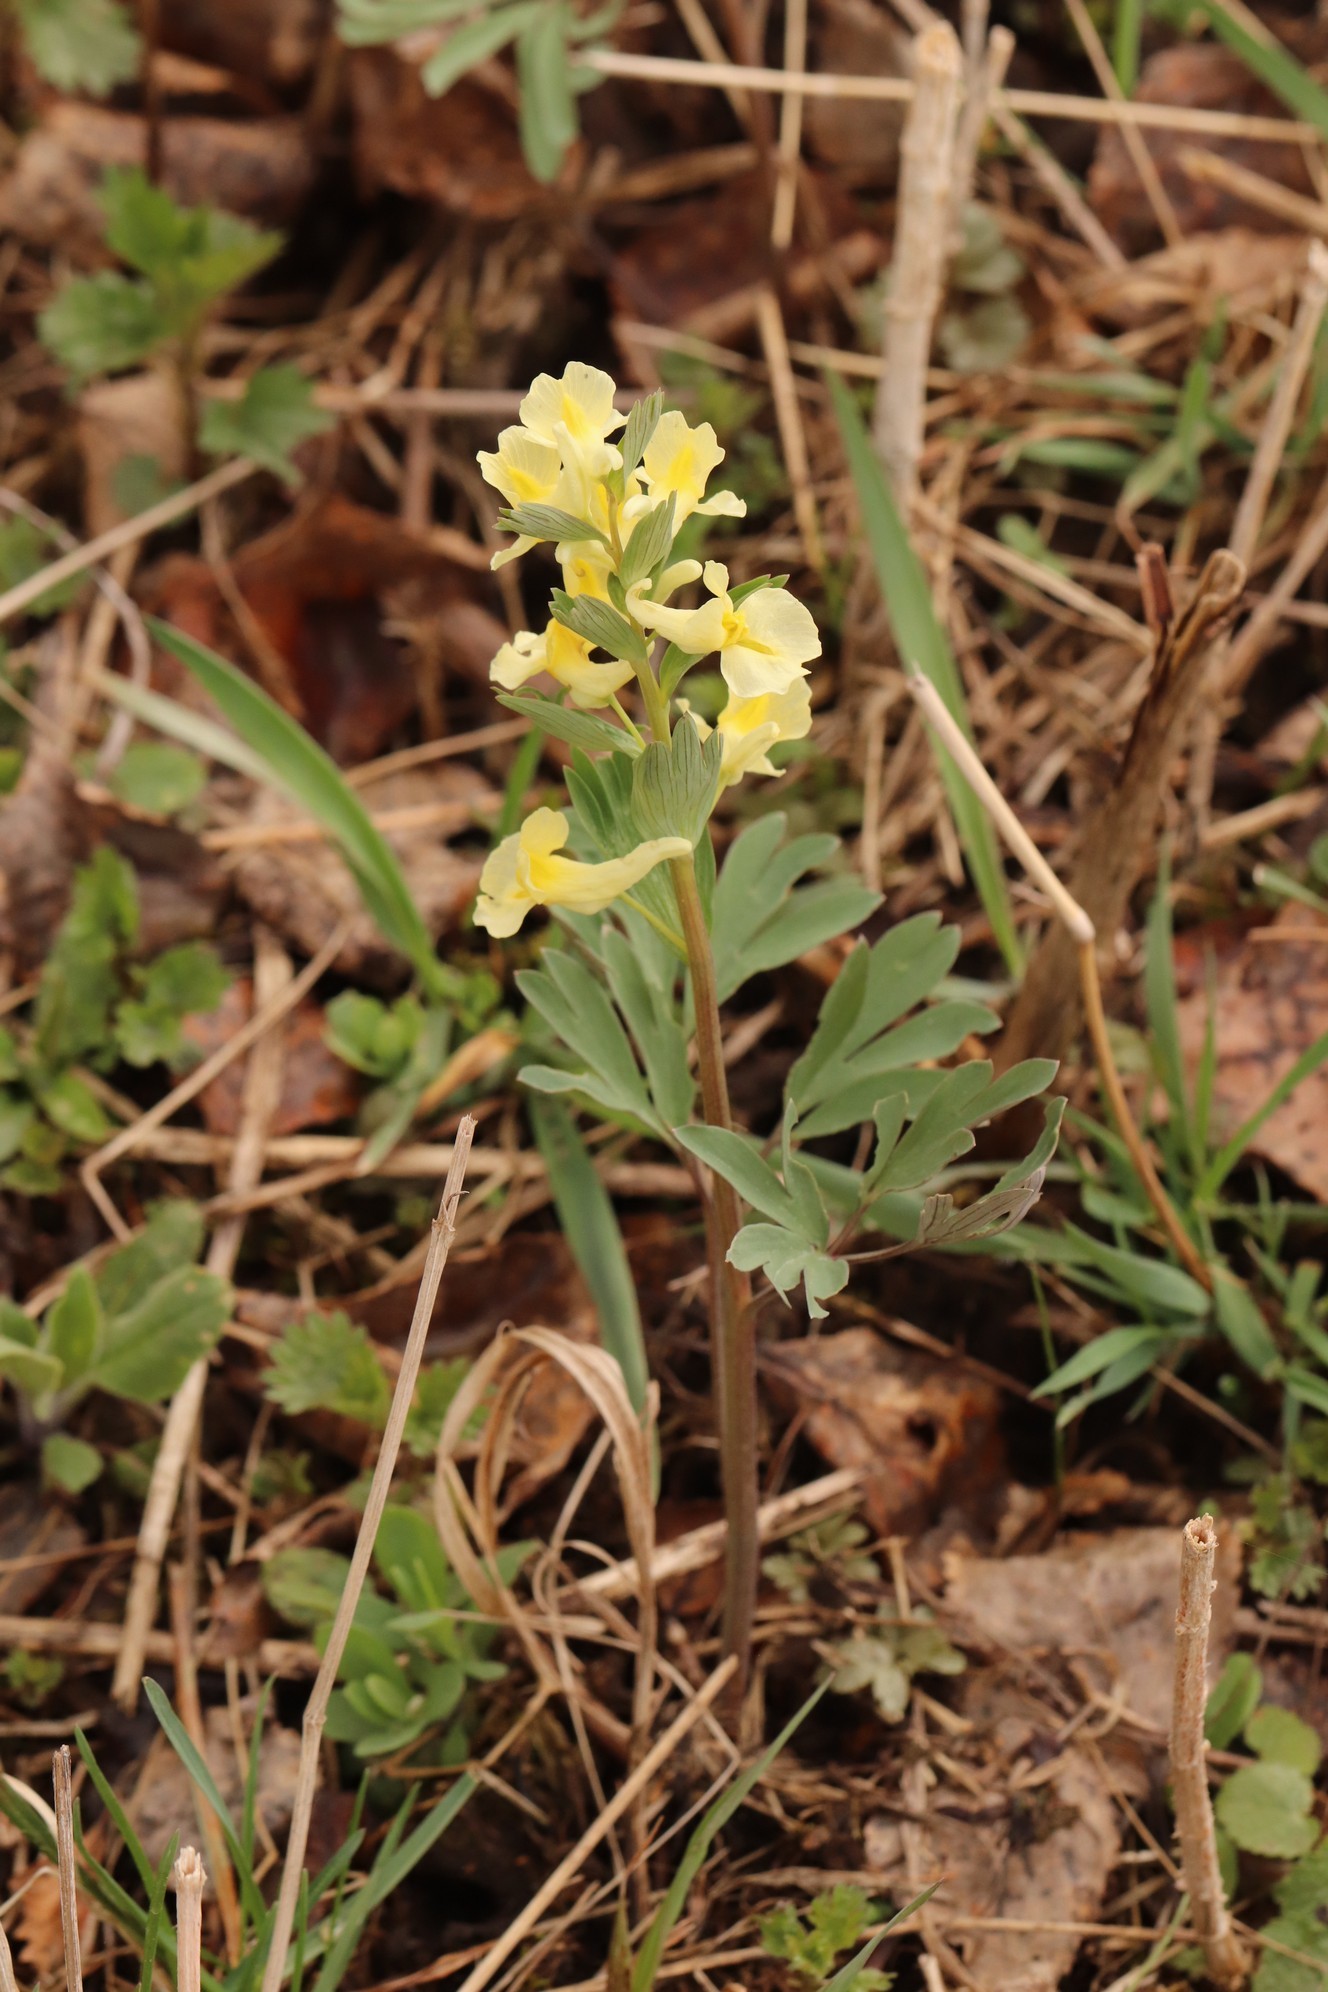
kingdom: Plantae
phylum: Tracheophyta
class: Magnoliopsida
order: Ranunculales
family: Papaveraceae
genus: Corydalis
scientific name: Corydalis bracteata
